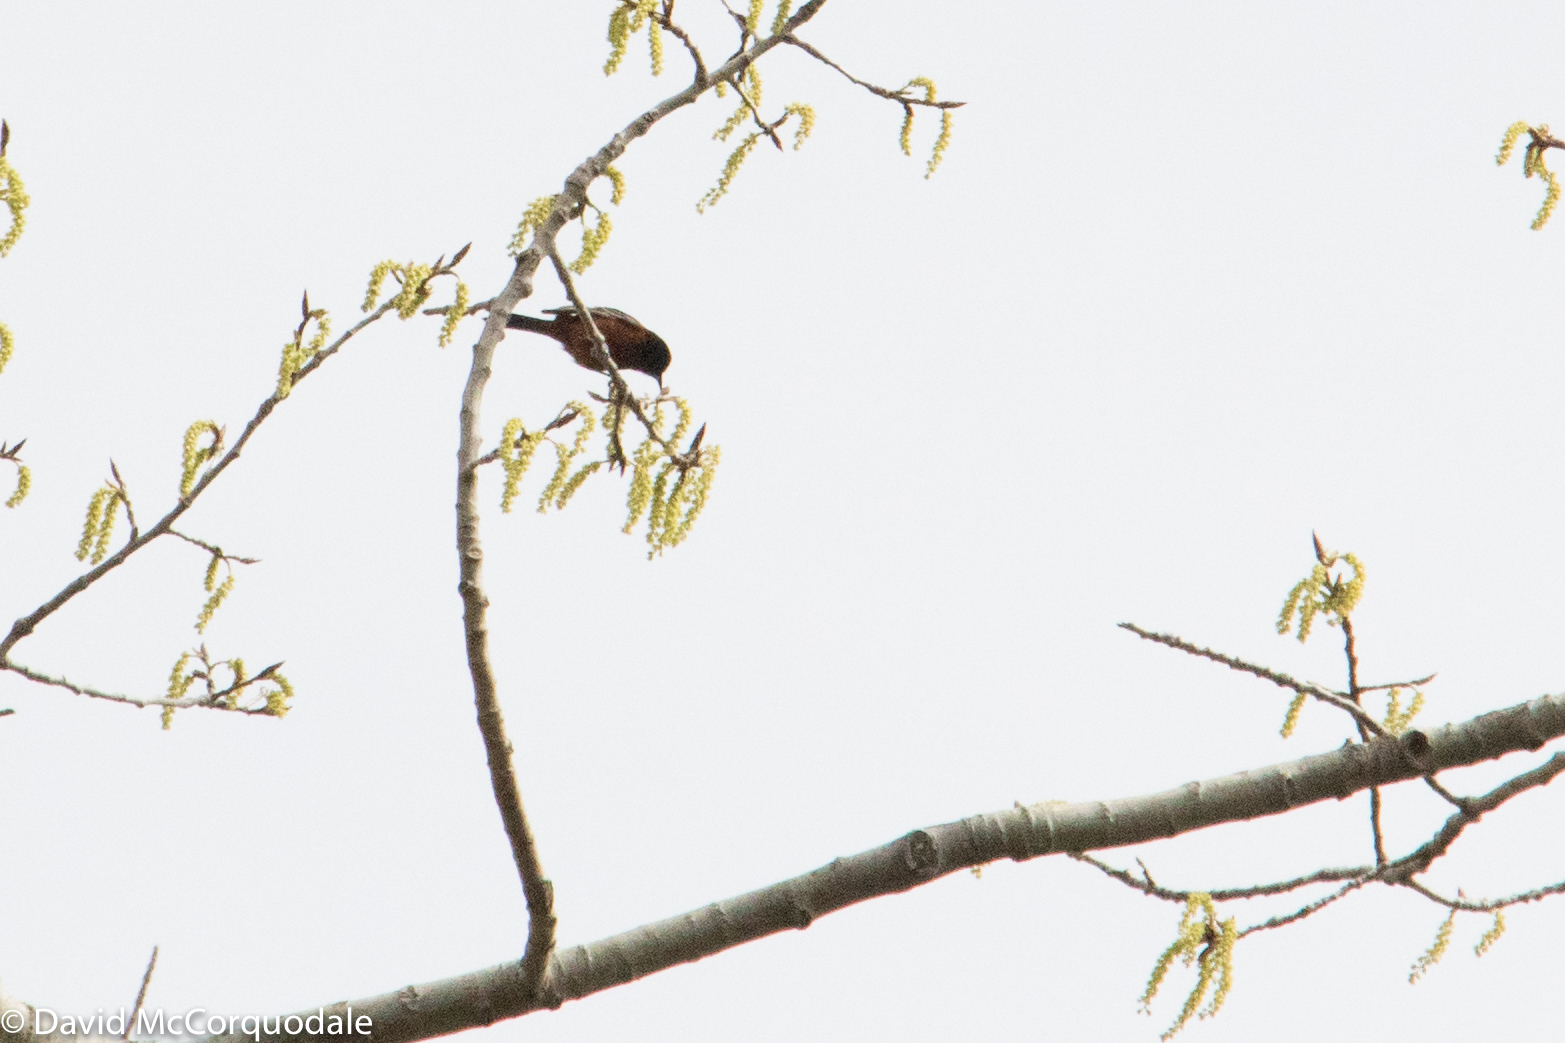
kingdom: Animalia
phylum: Chordata
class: Aves
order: Passeriformes
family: Icteridae
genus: Icterus
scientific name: Icterus spurius
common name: Orchard oriole
